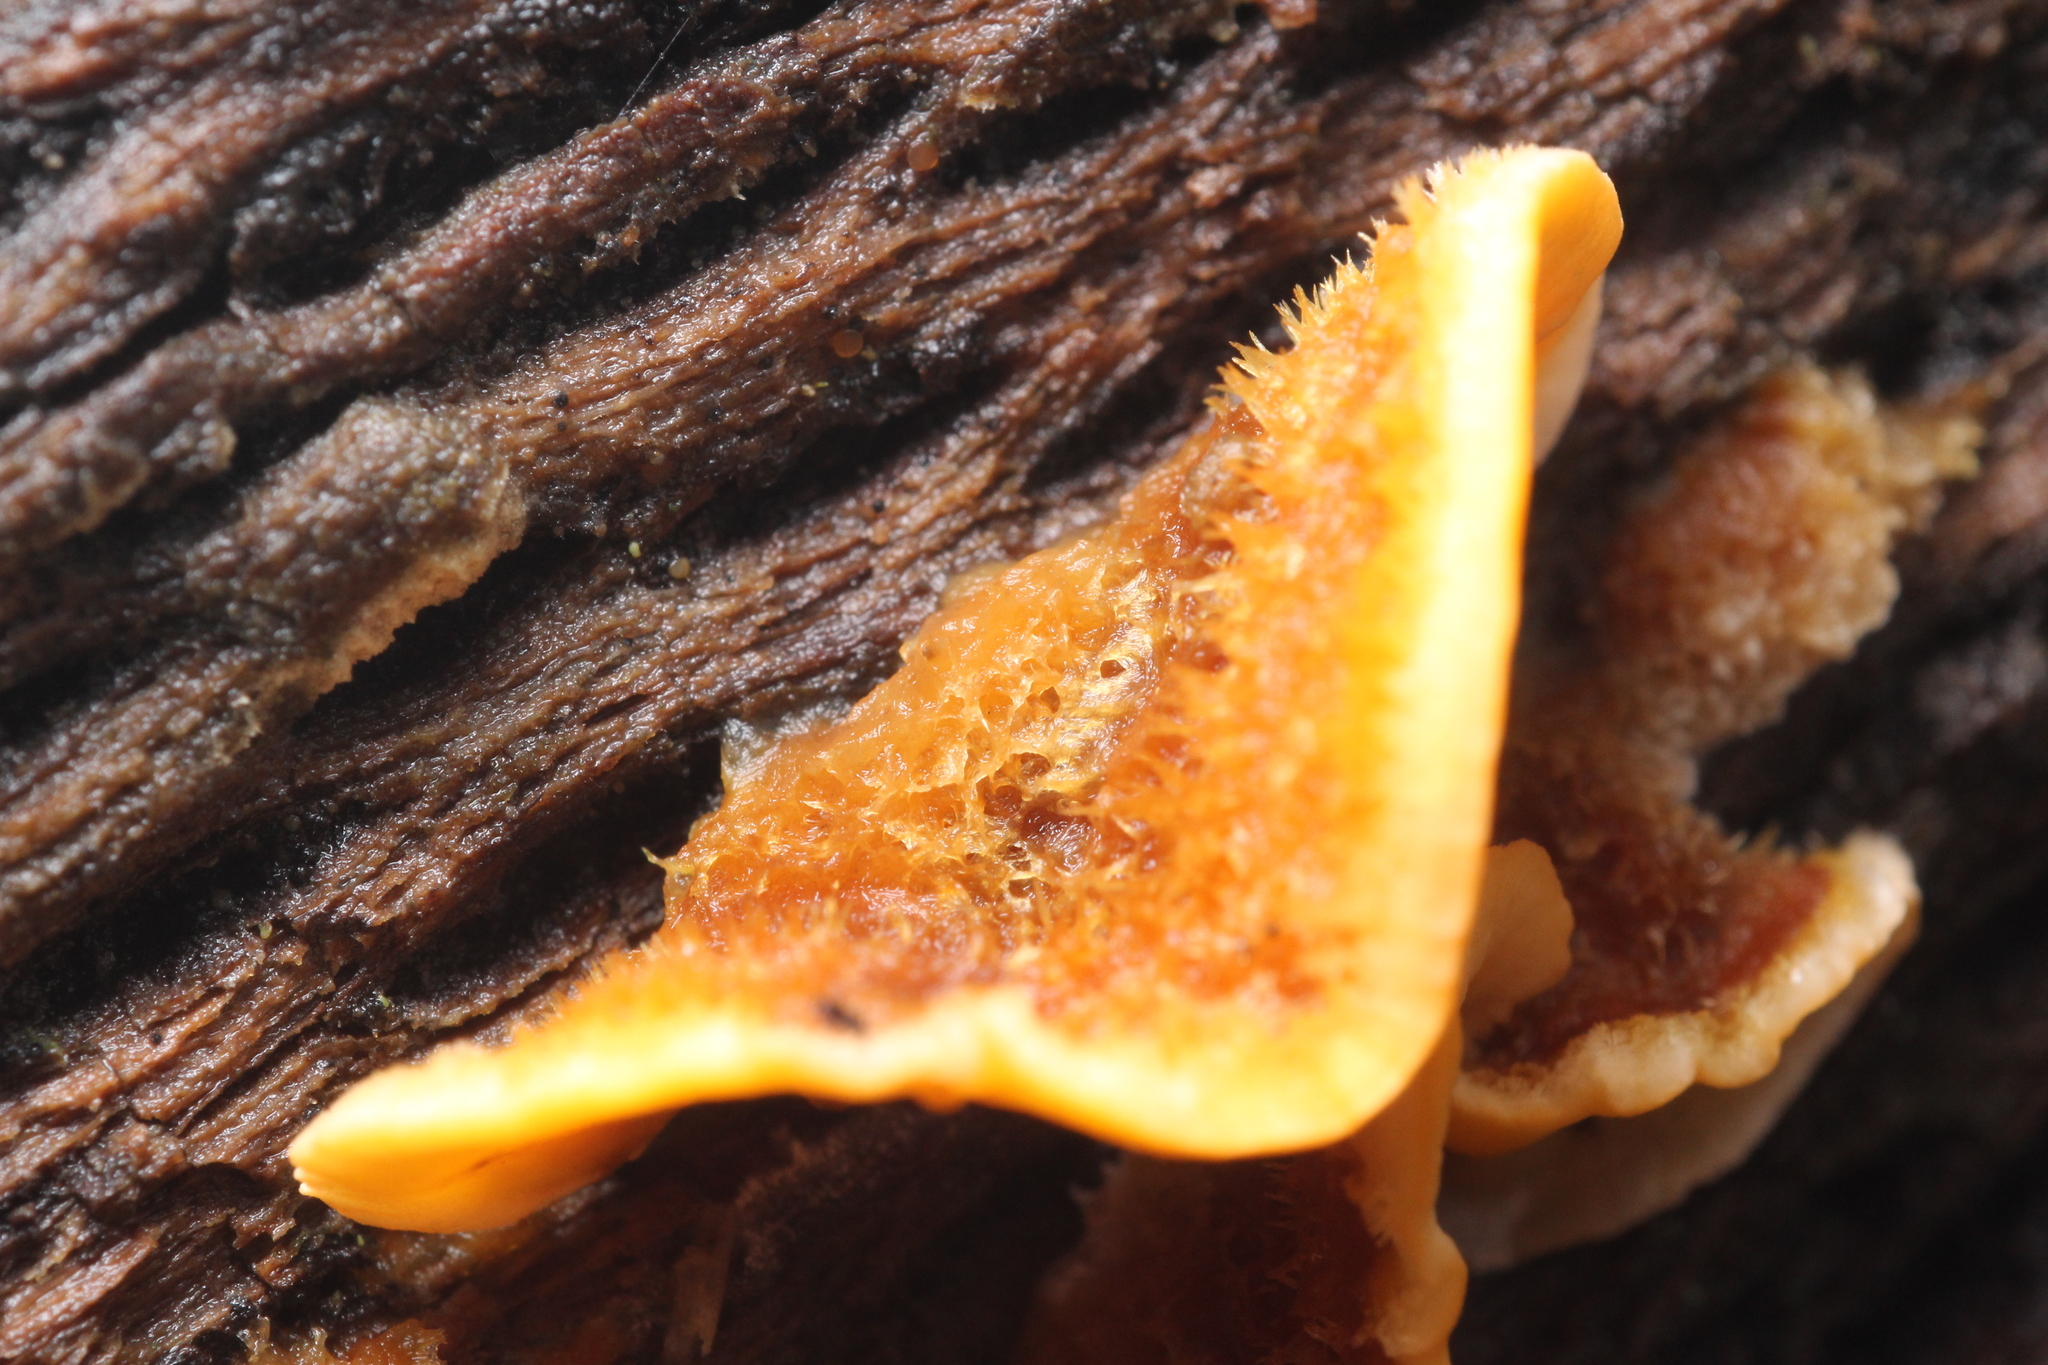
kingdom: Fungi
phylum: Basidiomycota
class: Agaricomycetes
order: Russulales
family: Stereaceae
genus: Stereum
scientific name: Stereum hirsutum
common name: Hairy curtain crust
